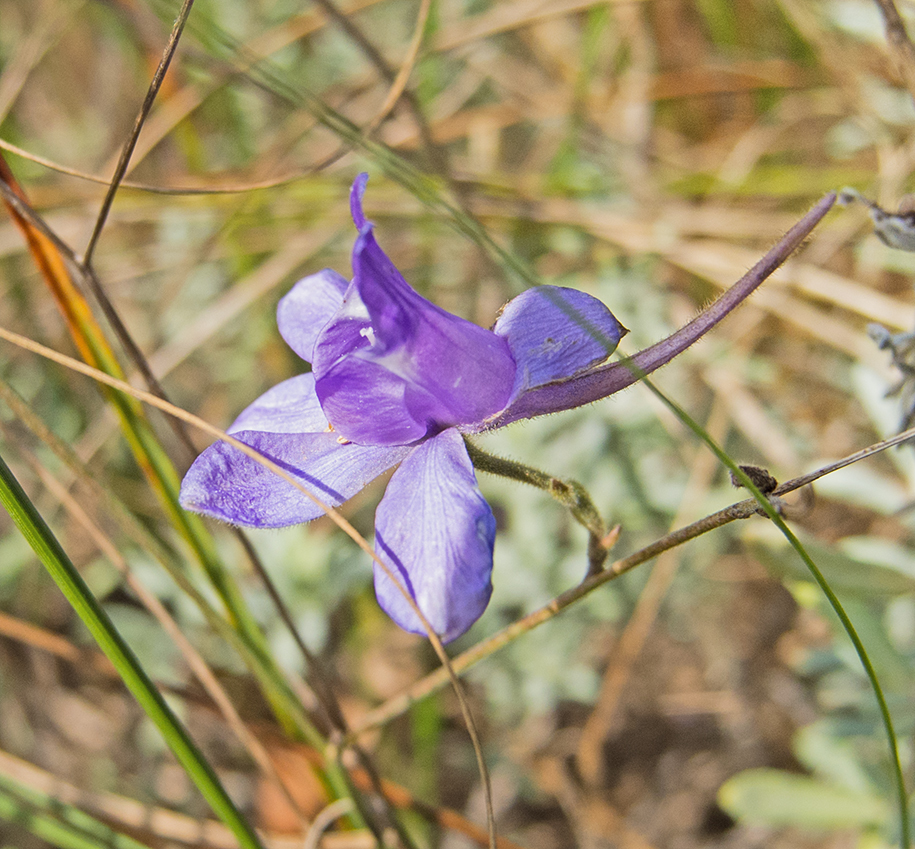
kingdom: Plantae
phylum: Tracheophyta
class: Magnoliopsida
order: Ranunculales
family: Ranunculaceae
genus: Delphinium
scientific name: Delphinium consolida
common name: Branching larkspur
